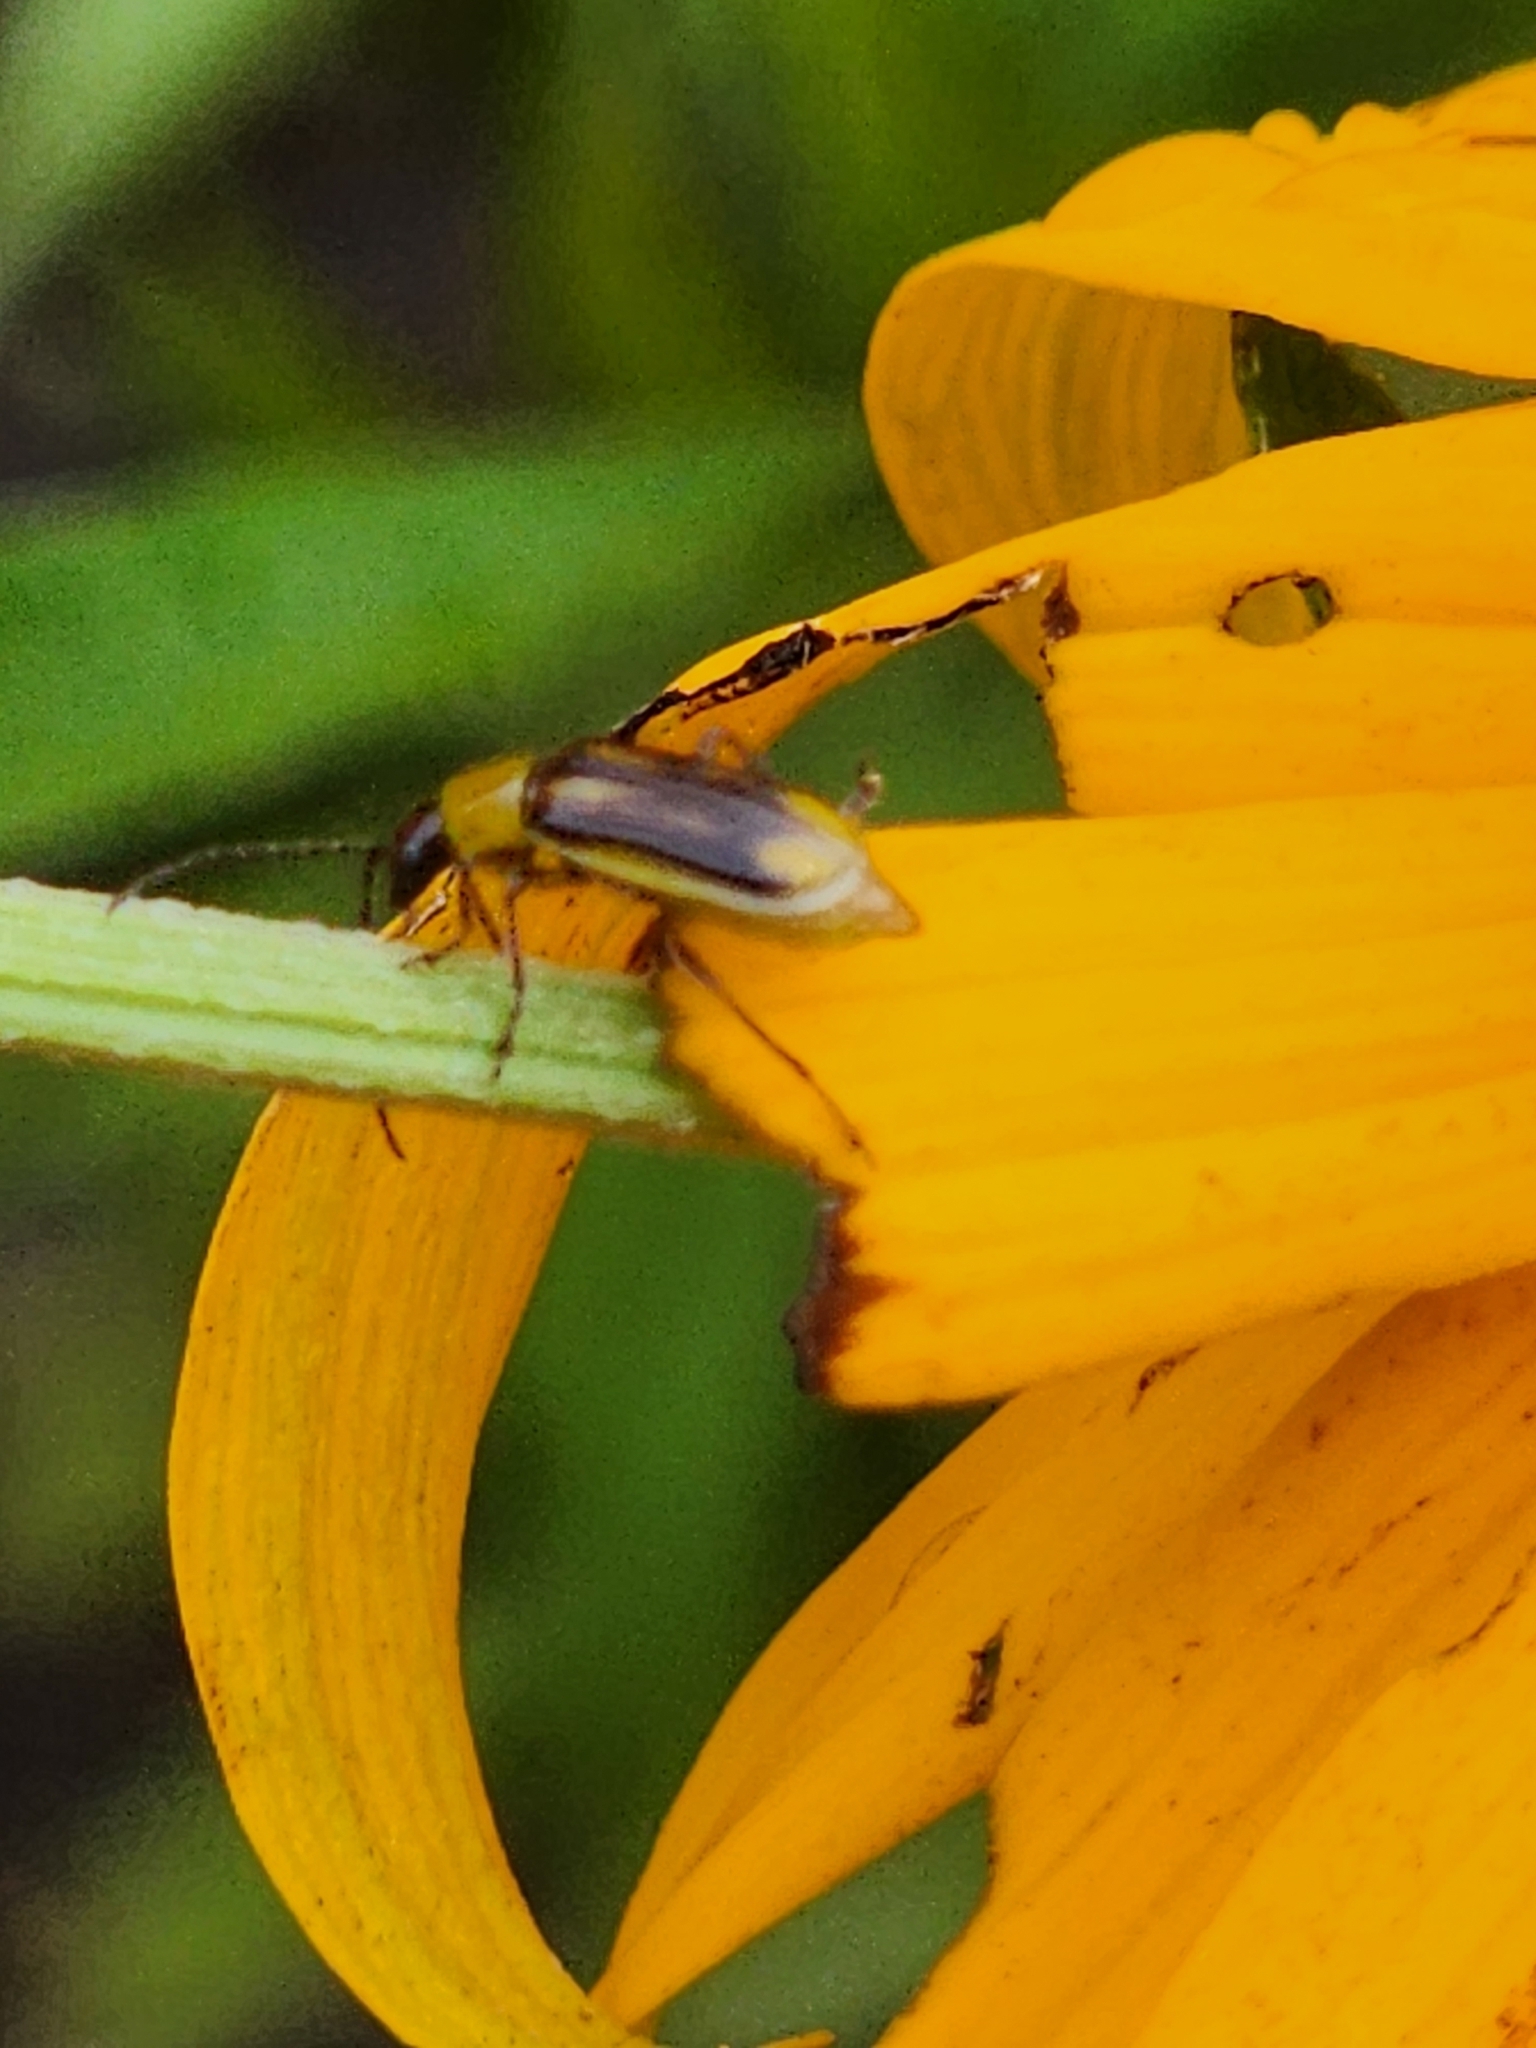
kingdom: Animalia
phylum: Arthropoda
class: Insecta
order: Coleoptera
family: Chrysomelidae
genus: Diabrotica
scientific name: Diabrotica virgifera
